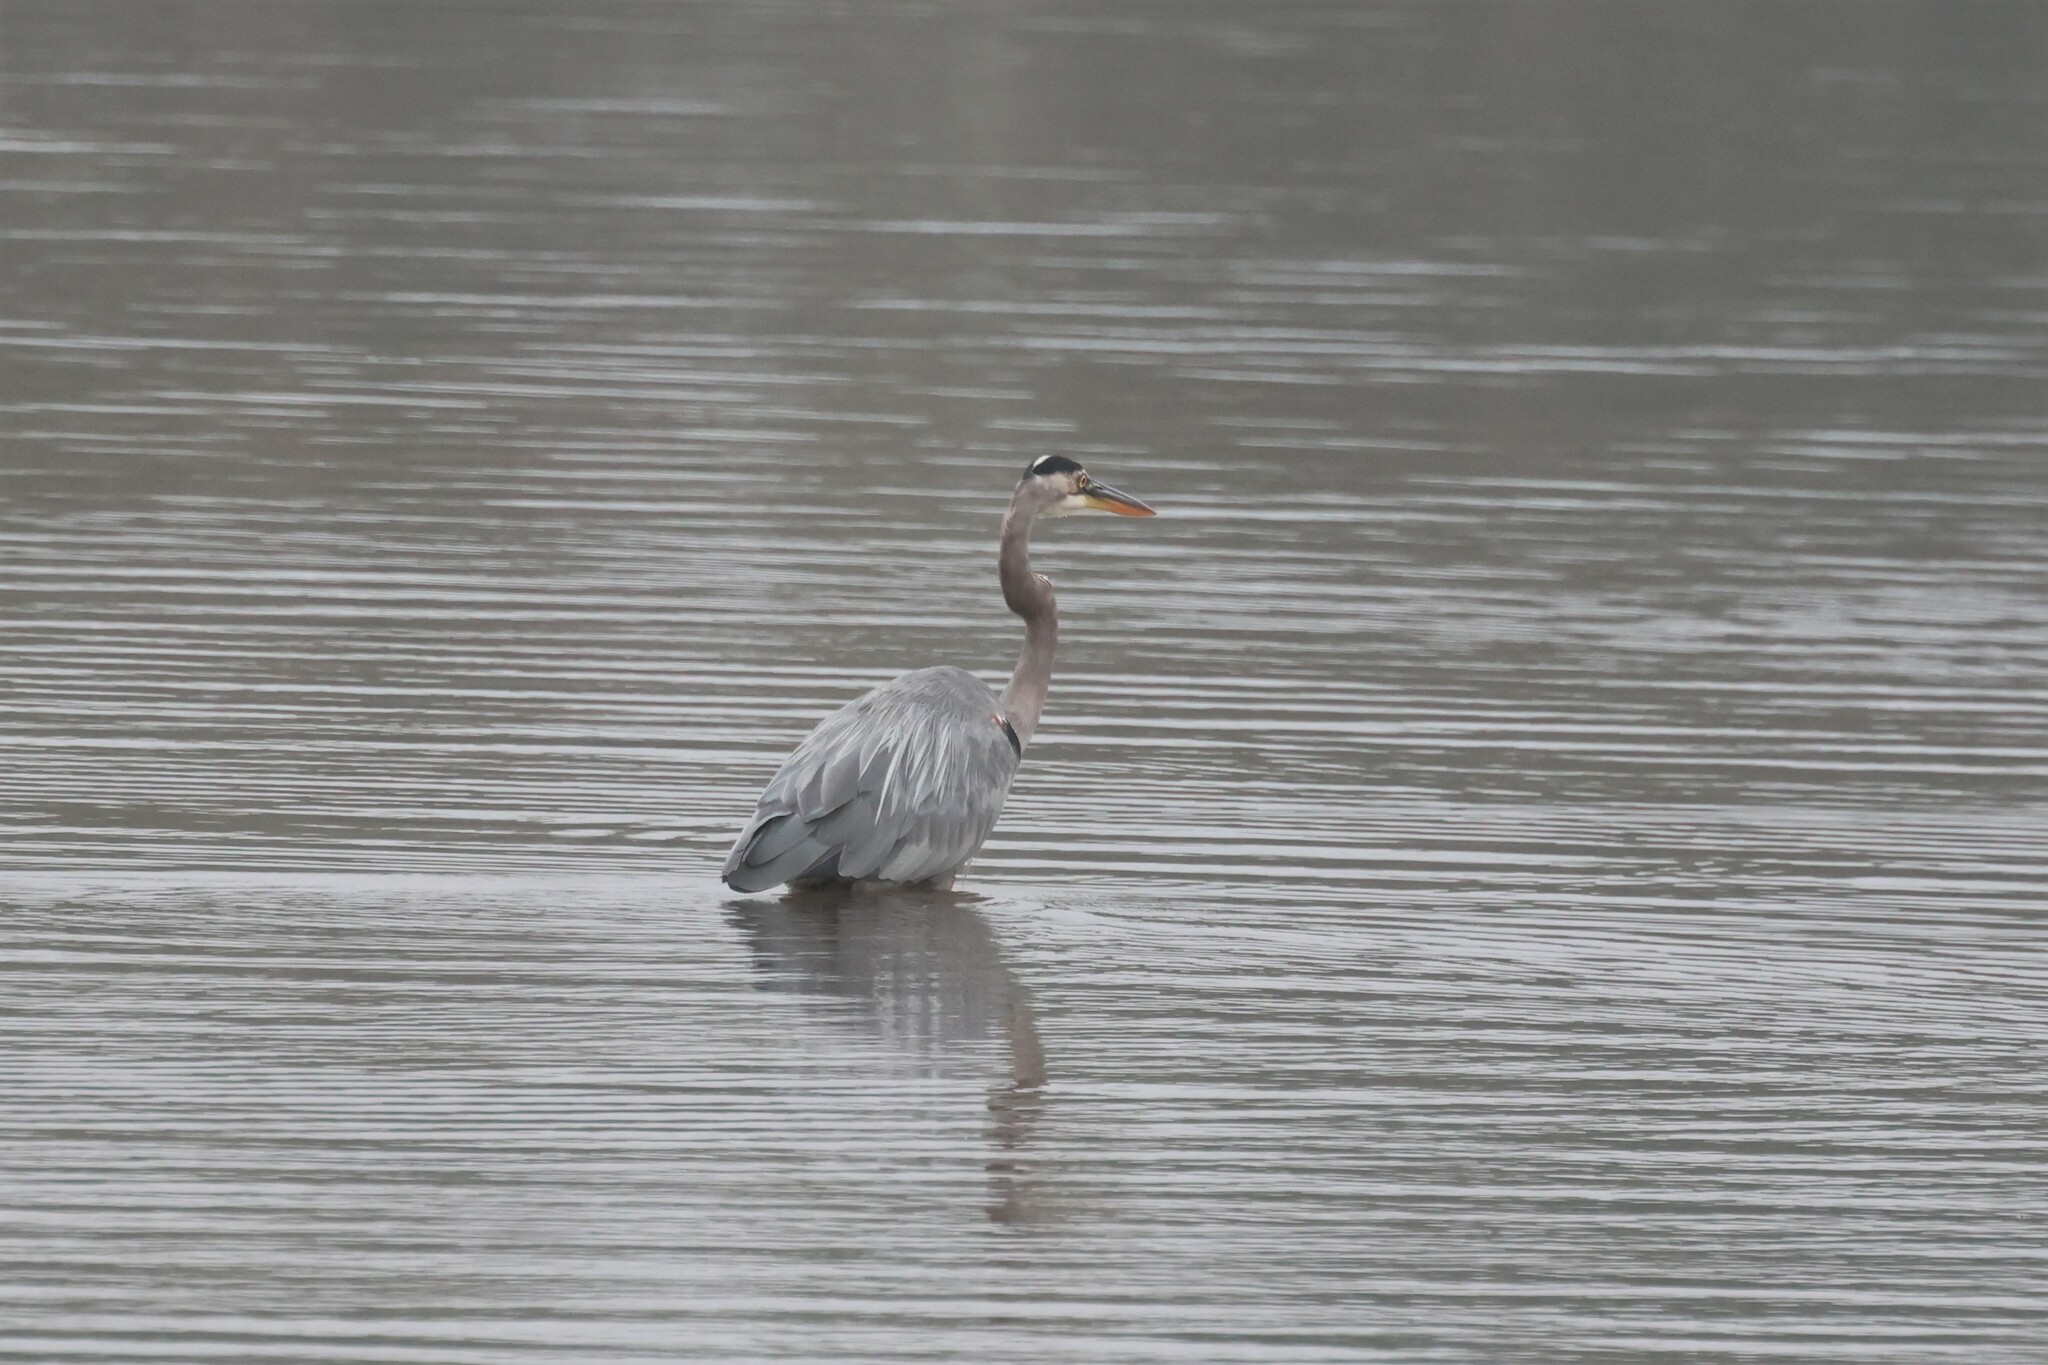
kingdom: Animalia
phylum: Chordata
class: Aves
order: Pelecaniformes
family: Ardeidae
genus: Ardea
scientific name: Ardea herodias
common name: Great blue heron
